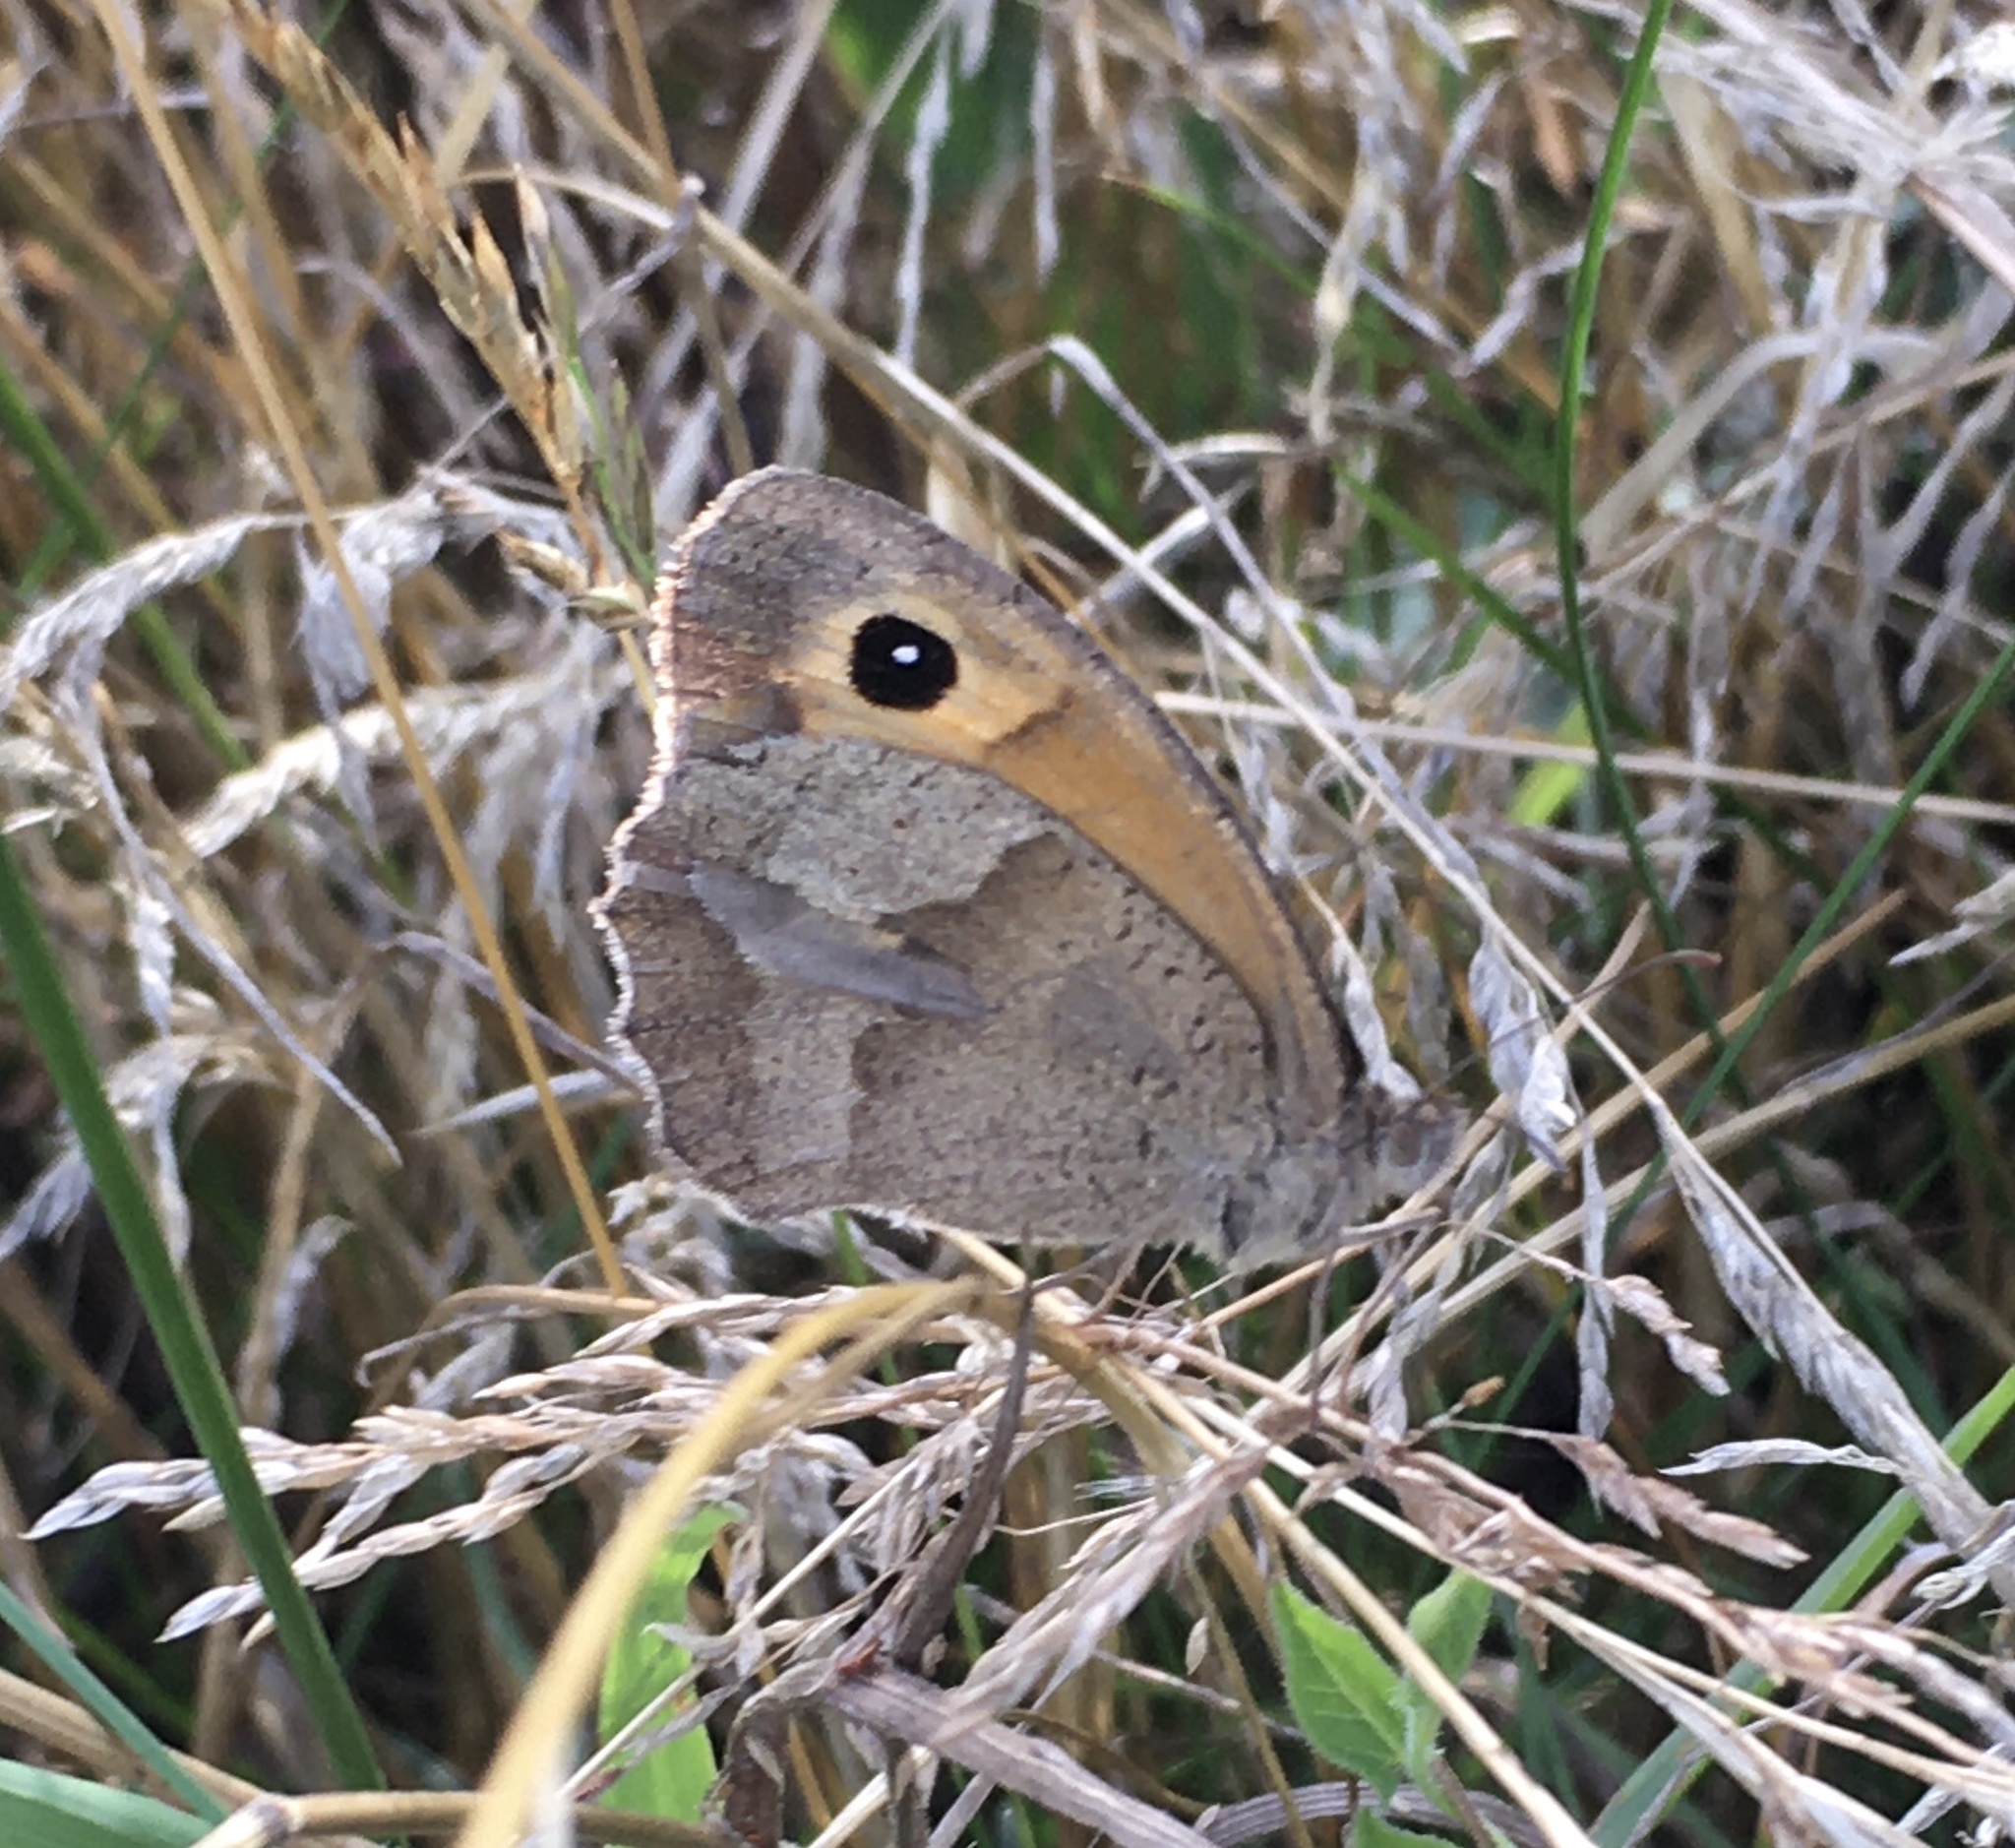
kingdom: Animalia
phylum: Arthropoda
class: Insecta
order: Lepidoptera
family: Nymphalidae
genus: Maniola
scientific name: Maniola jurtina
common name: Meadow brown
